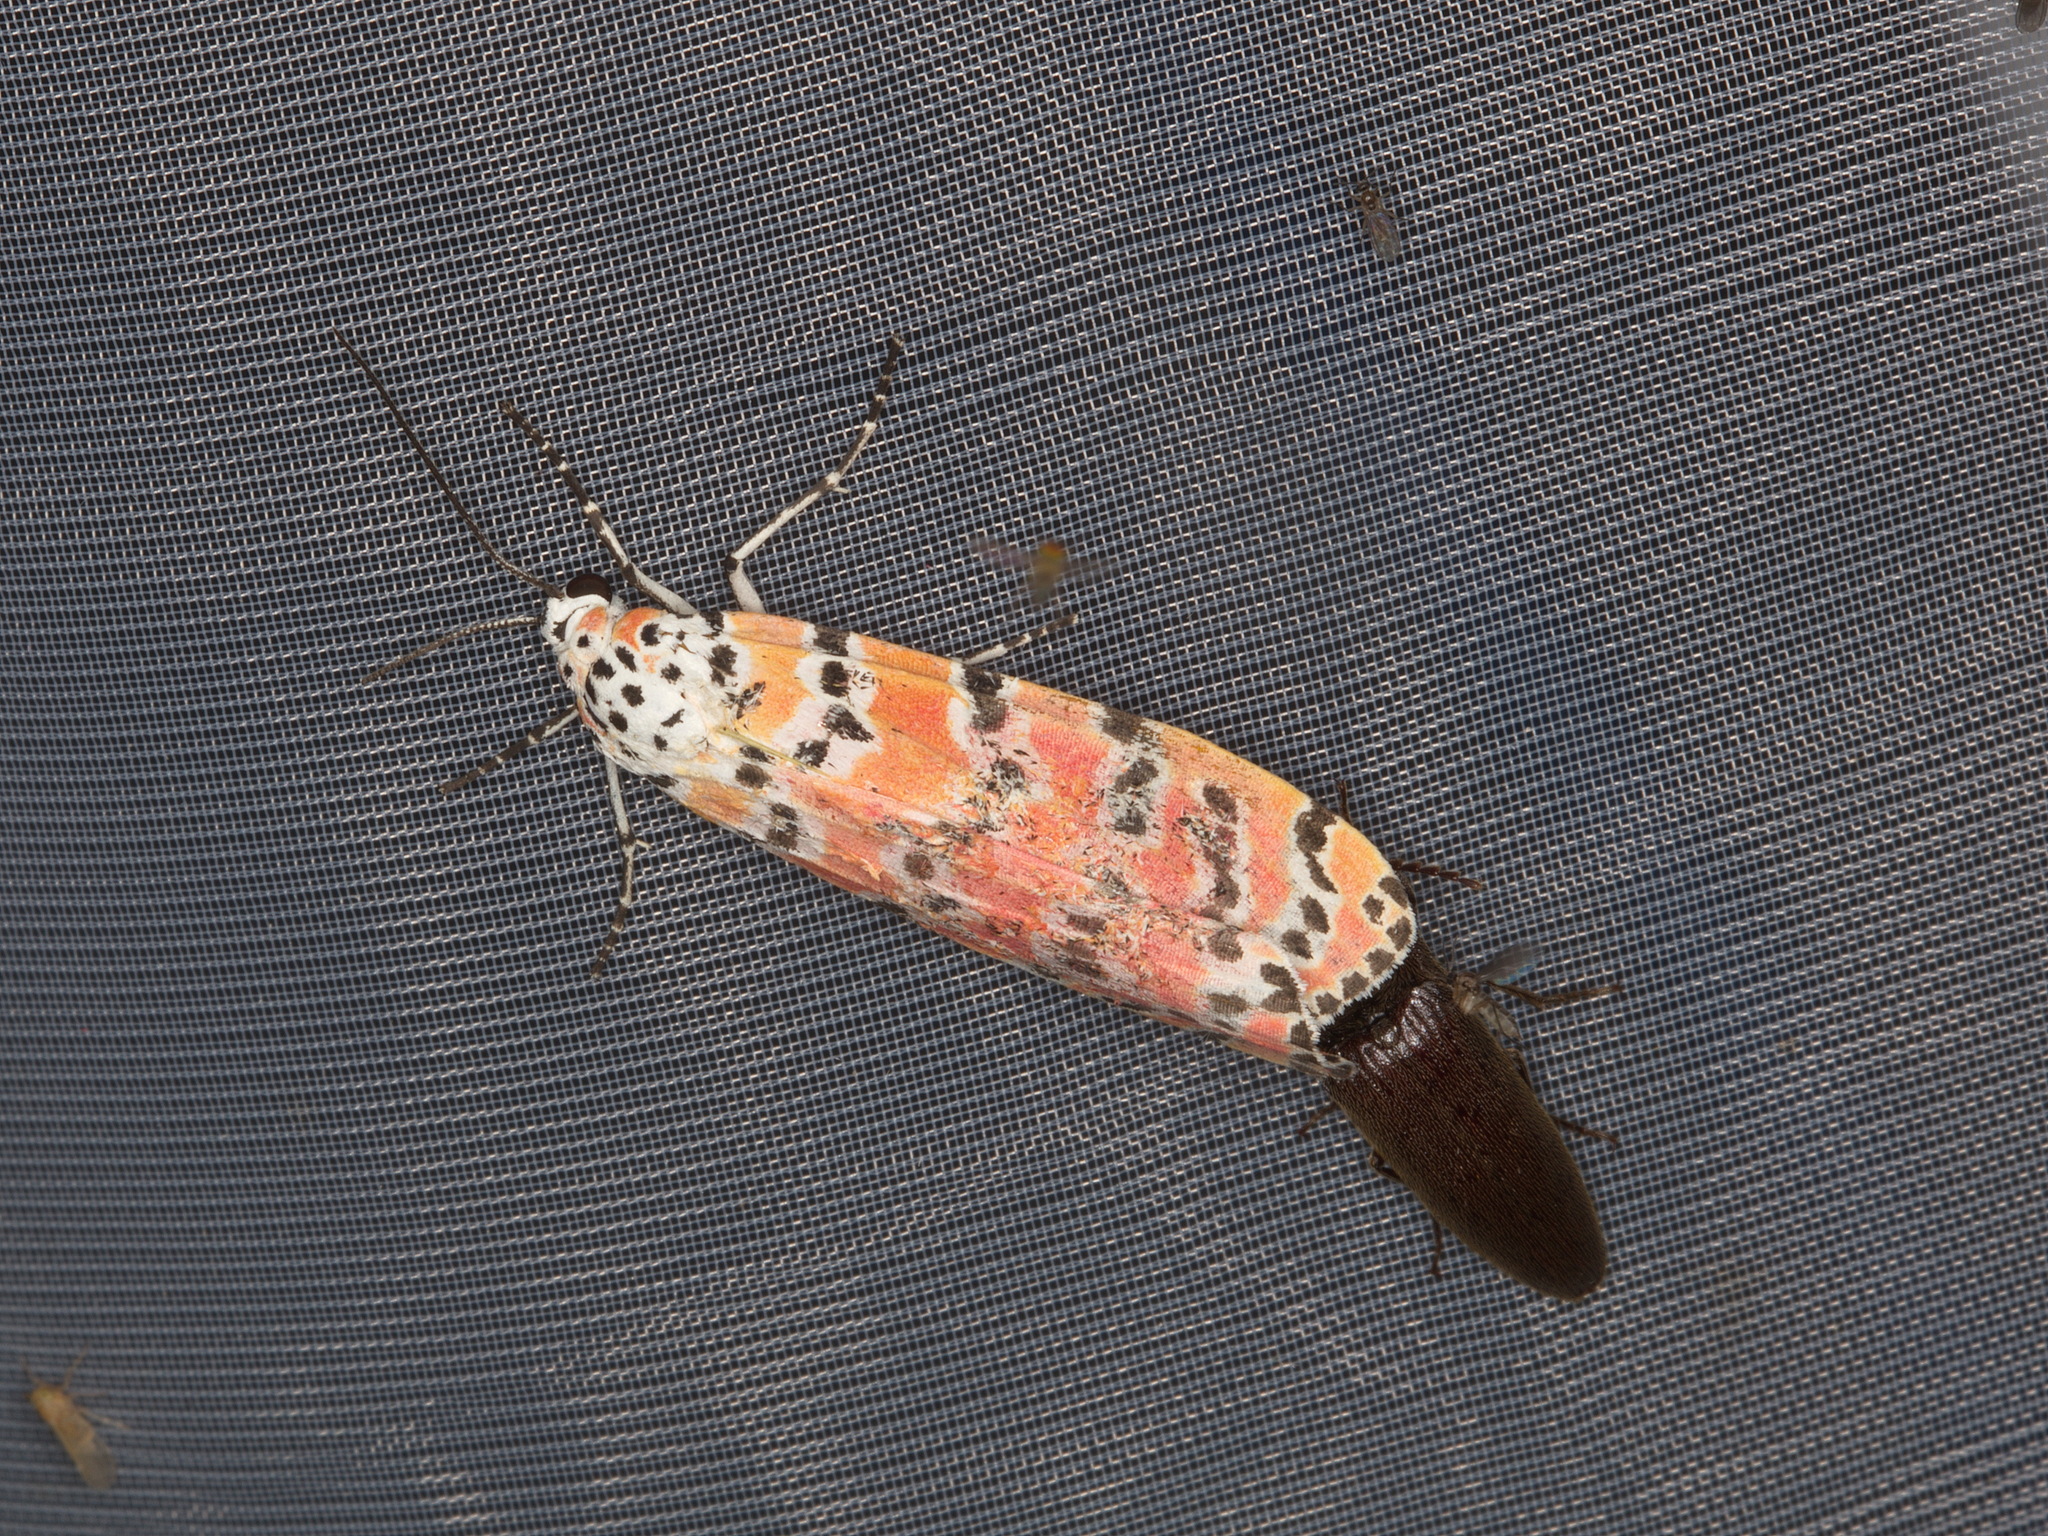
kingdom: Animalia
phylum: Arthropoda
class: Insecta
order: Lepidoptera
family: Erebidae
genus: Utetheisa
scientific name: Utetheisa ornatrix
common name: Beautiful utetheisa
